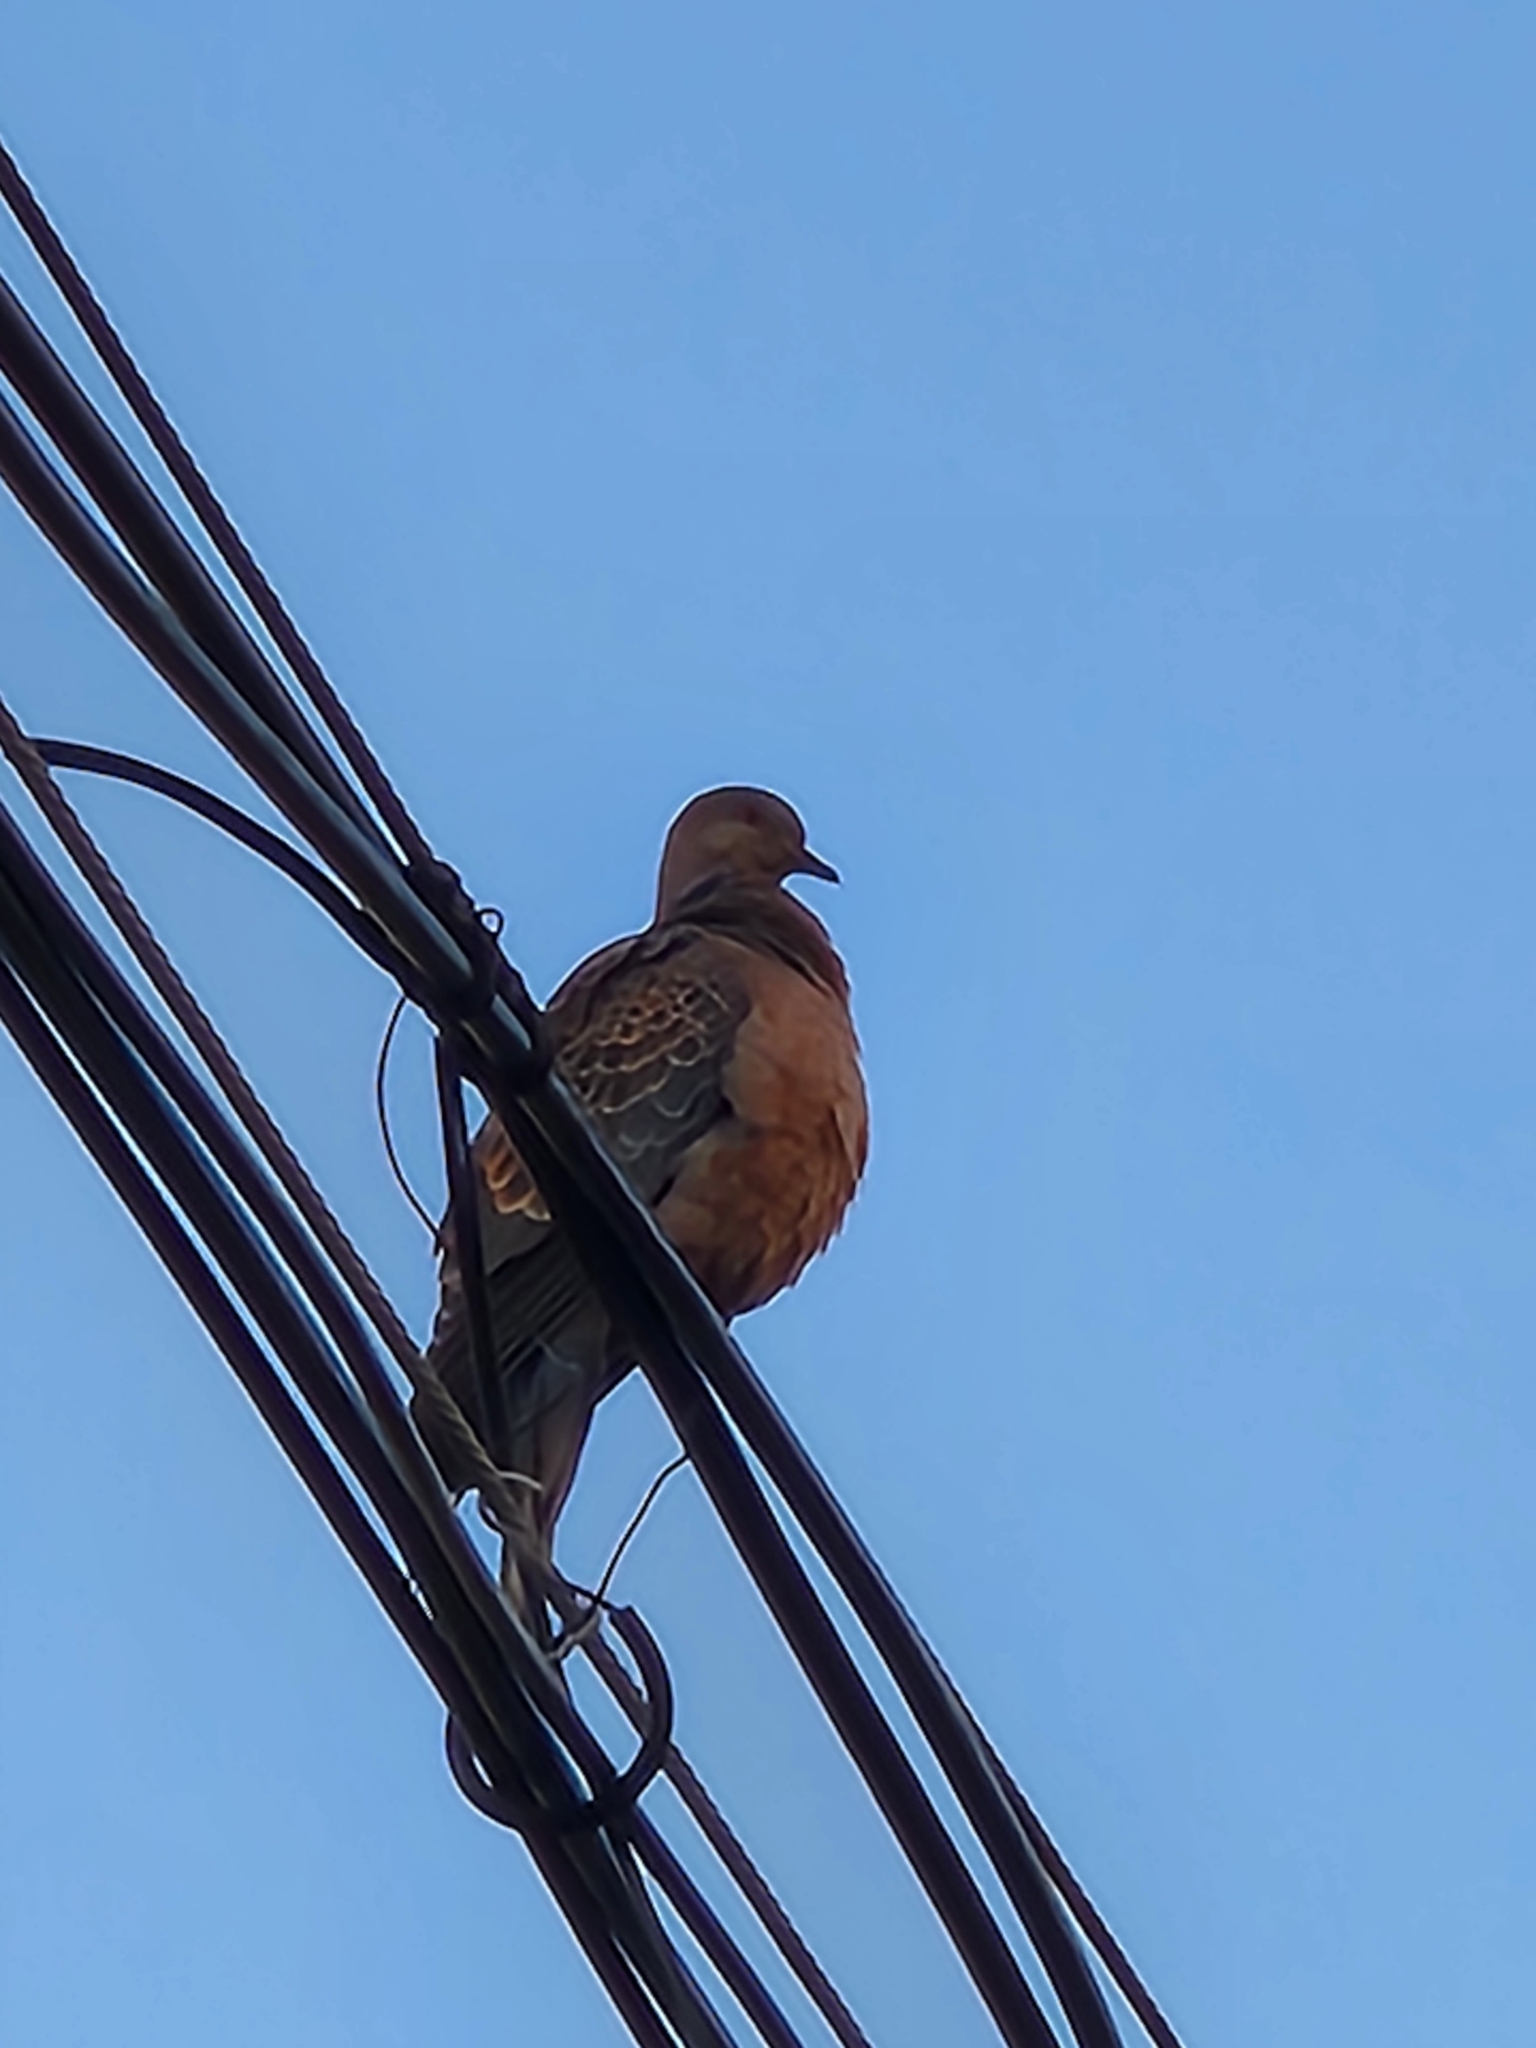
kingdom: Animalia
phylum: Chordata
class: Aves
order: Columbiformes
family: Columbidae
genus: Streptopelia
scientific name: Streptopelia orientalis
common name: Oriental turtle dove
